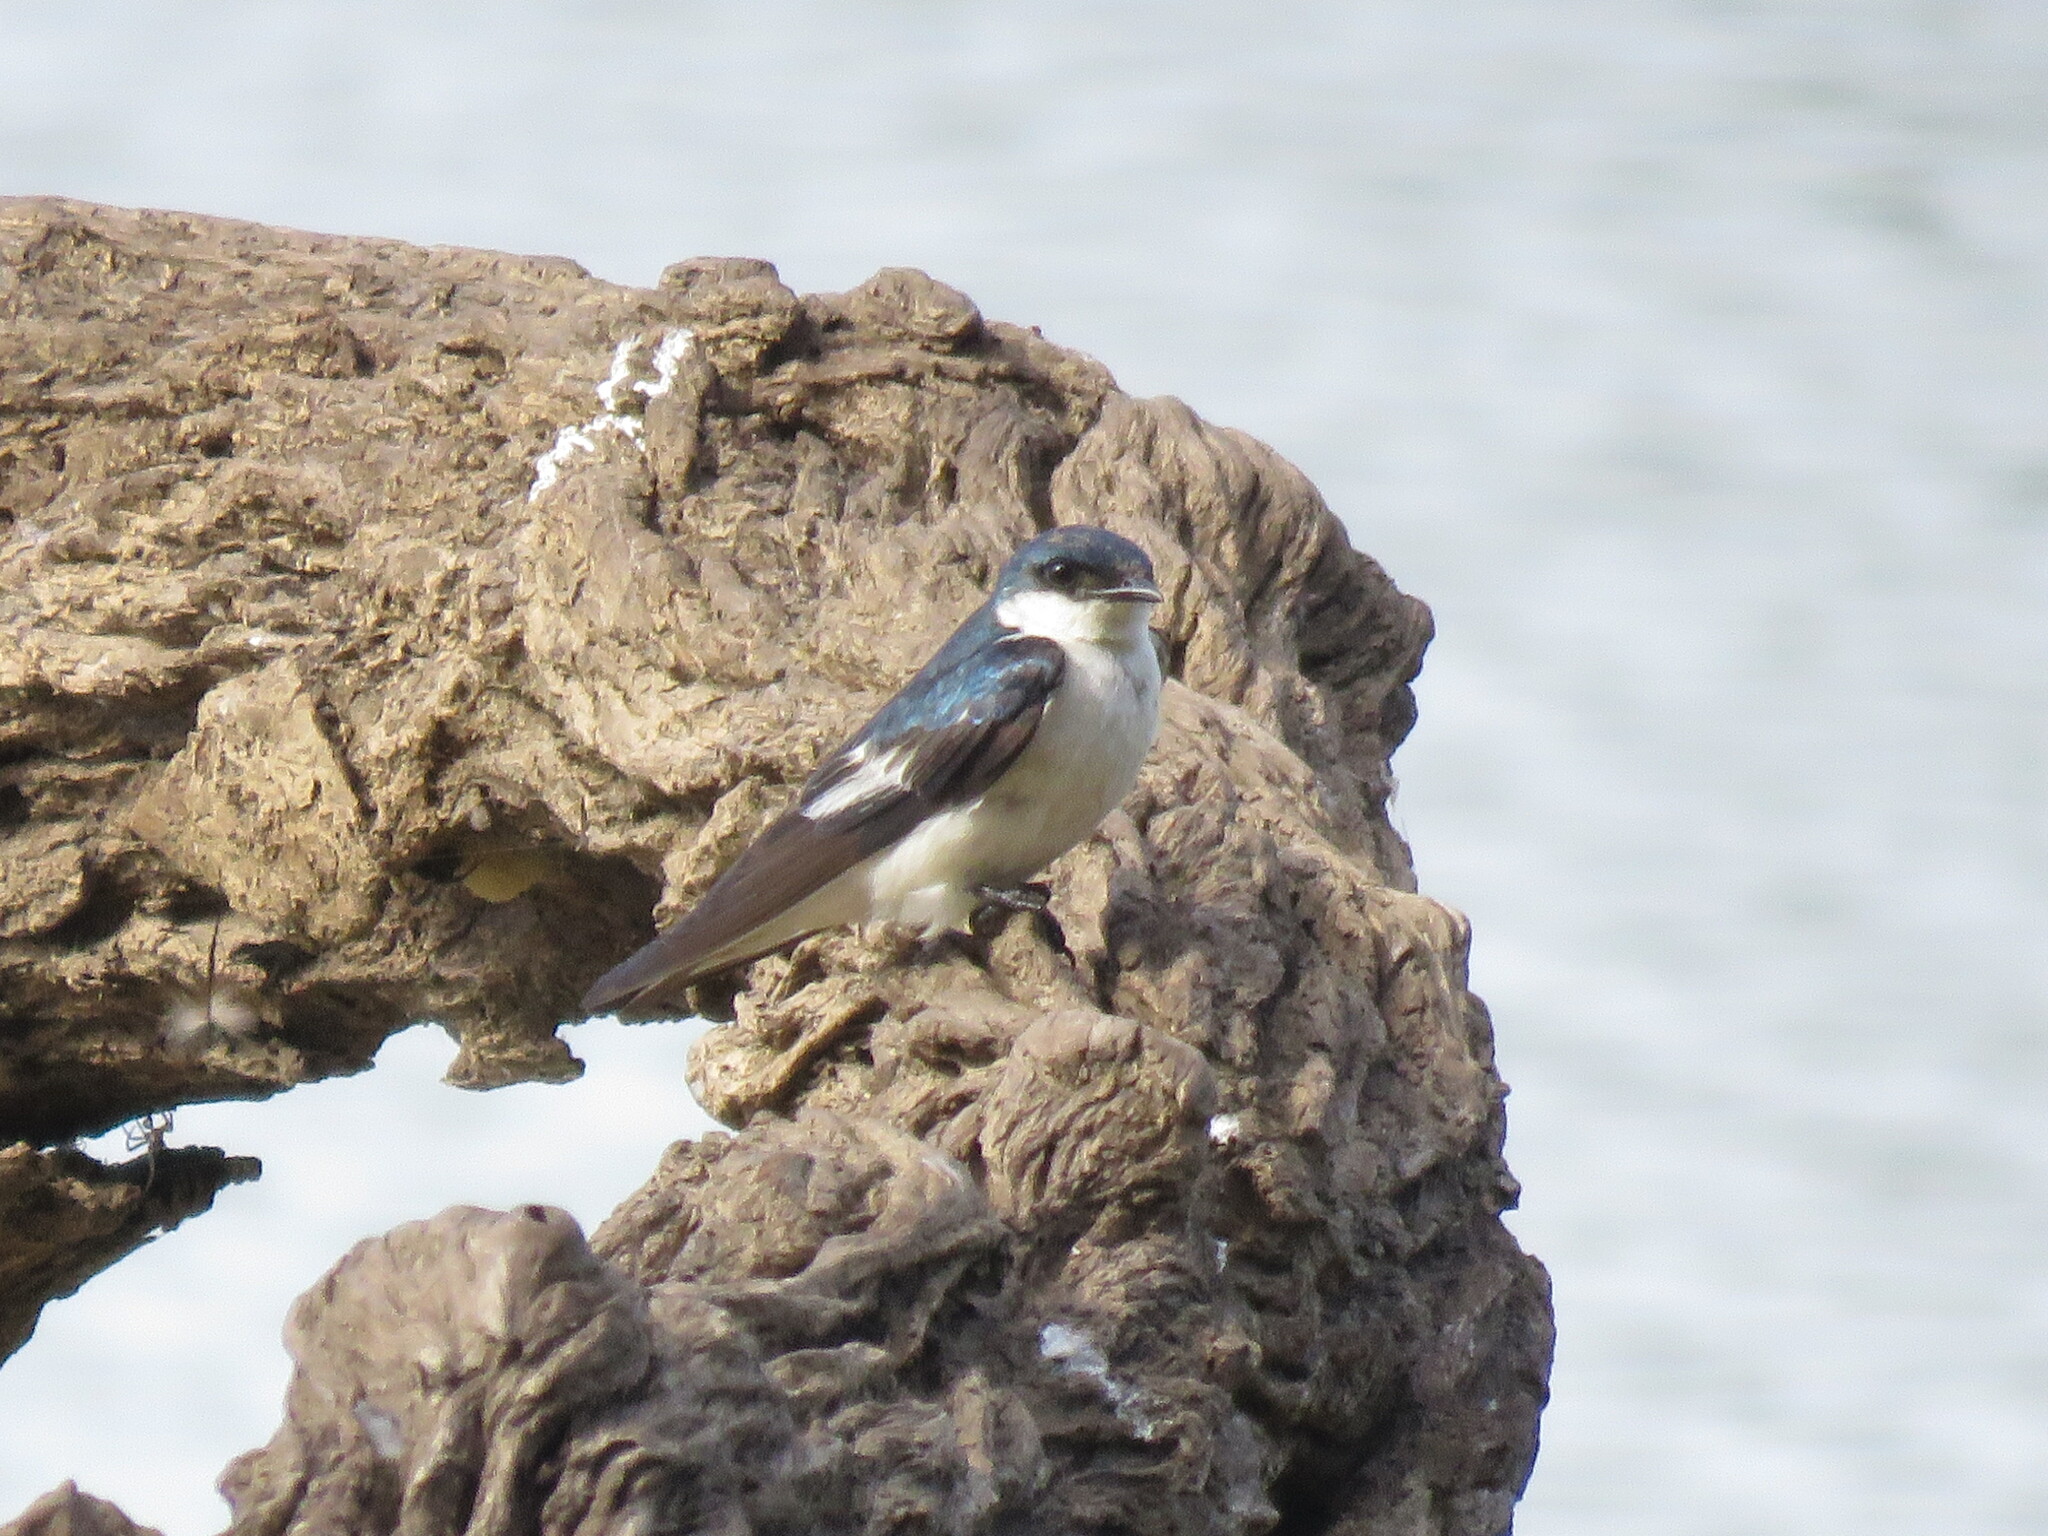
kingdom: Animalia
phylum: Chordata
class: Aves
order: Passeriformes
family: Hirundinidae
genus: Tachycineta
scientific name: Tachycineta albiventer
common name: White-winged swallow
